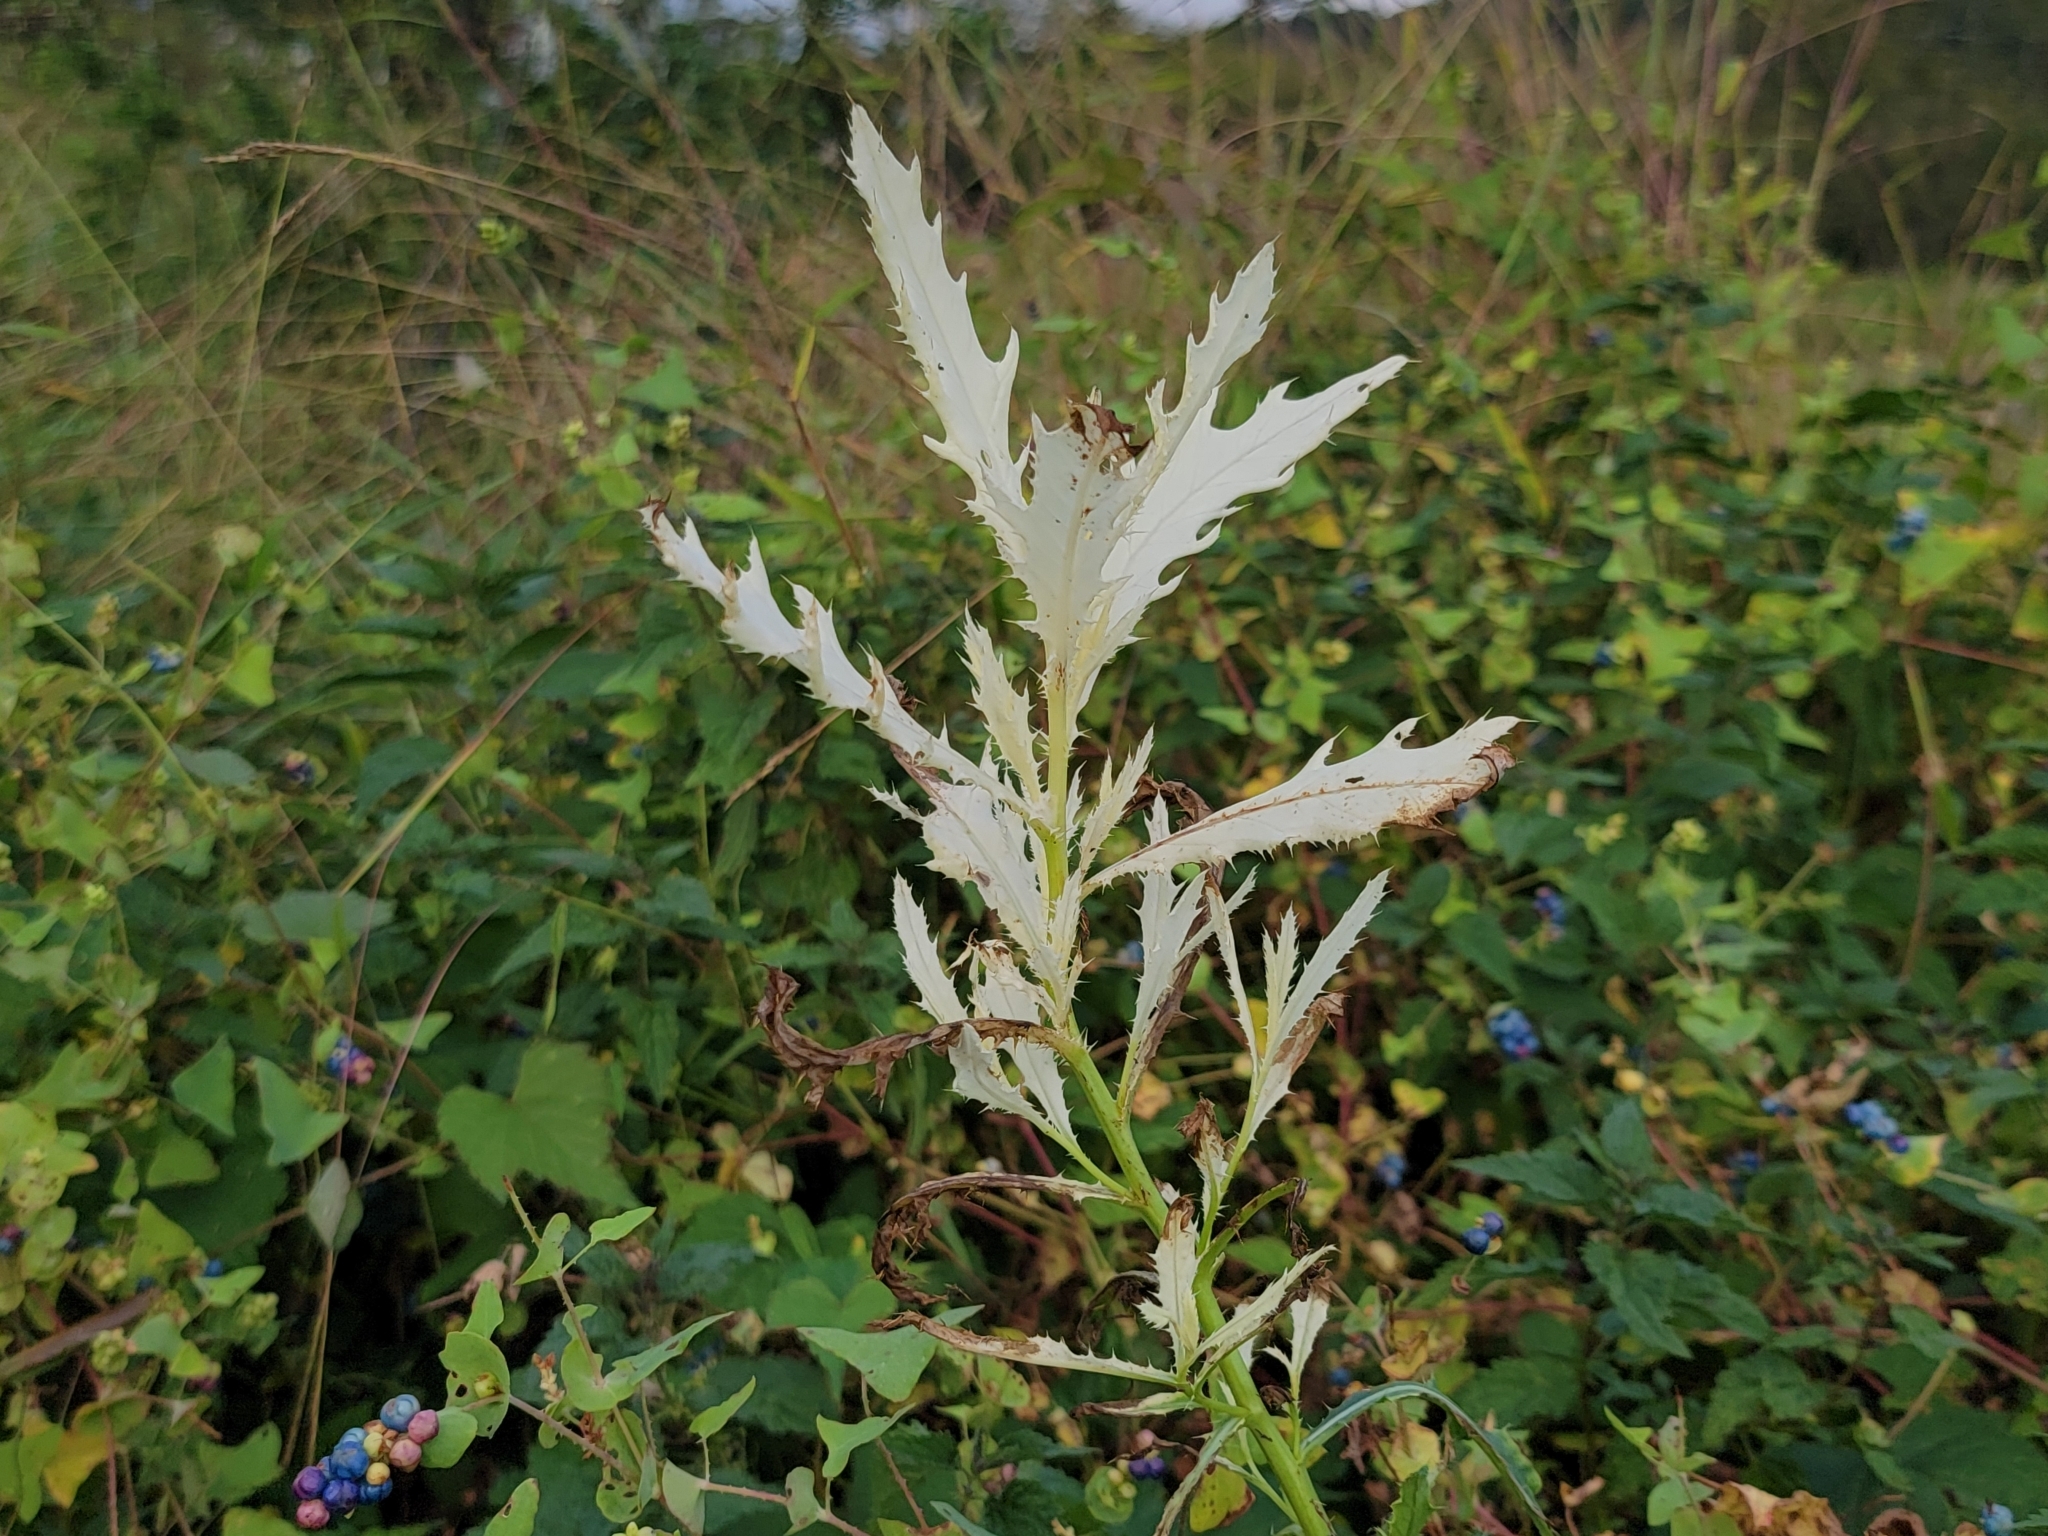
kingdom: Bacteria
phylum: Proteobacteria
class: Gammaproteobacteria
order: Pseudomonadales
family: Pseudomonadaceae
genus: Pseudomonas
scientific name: Pseudomonas syringae
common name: Bacterial speck
